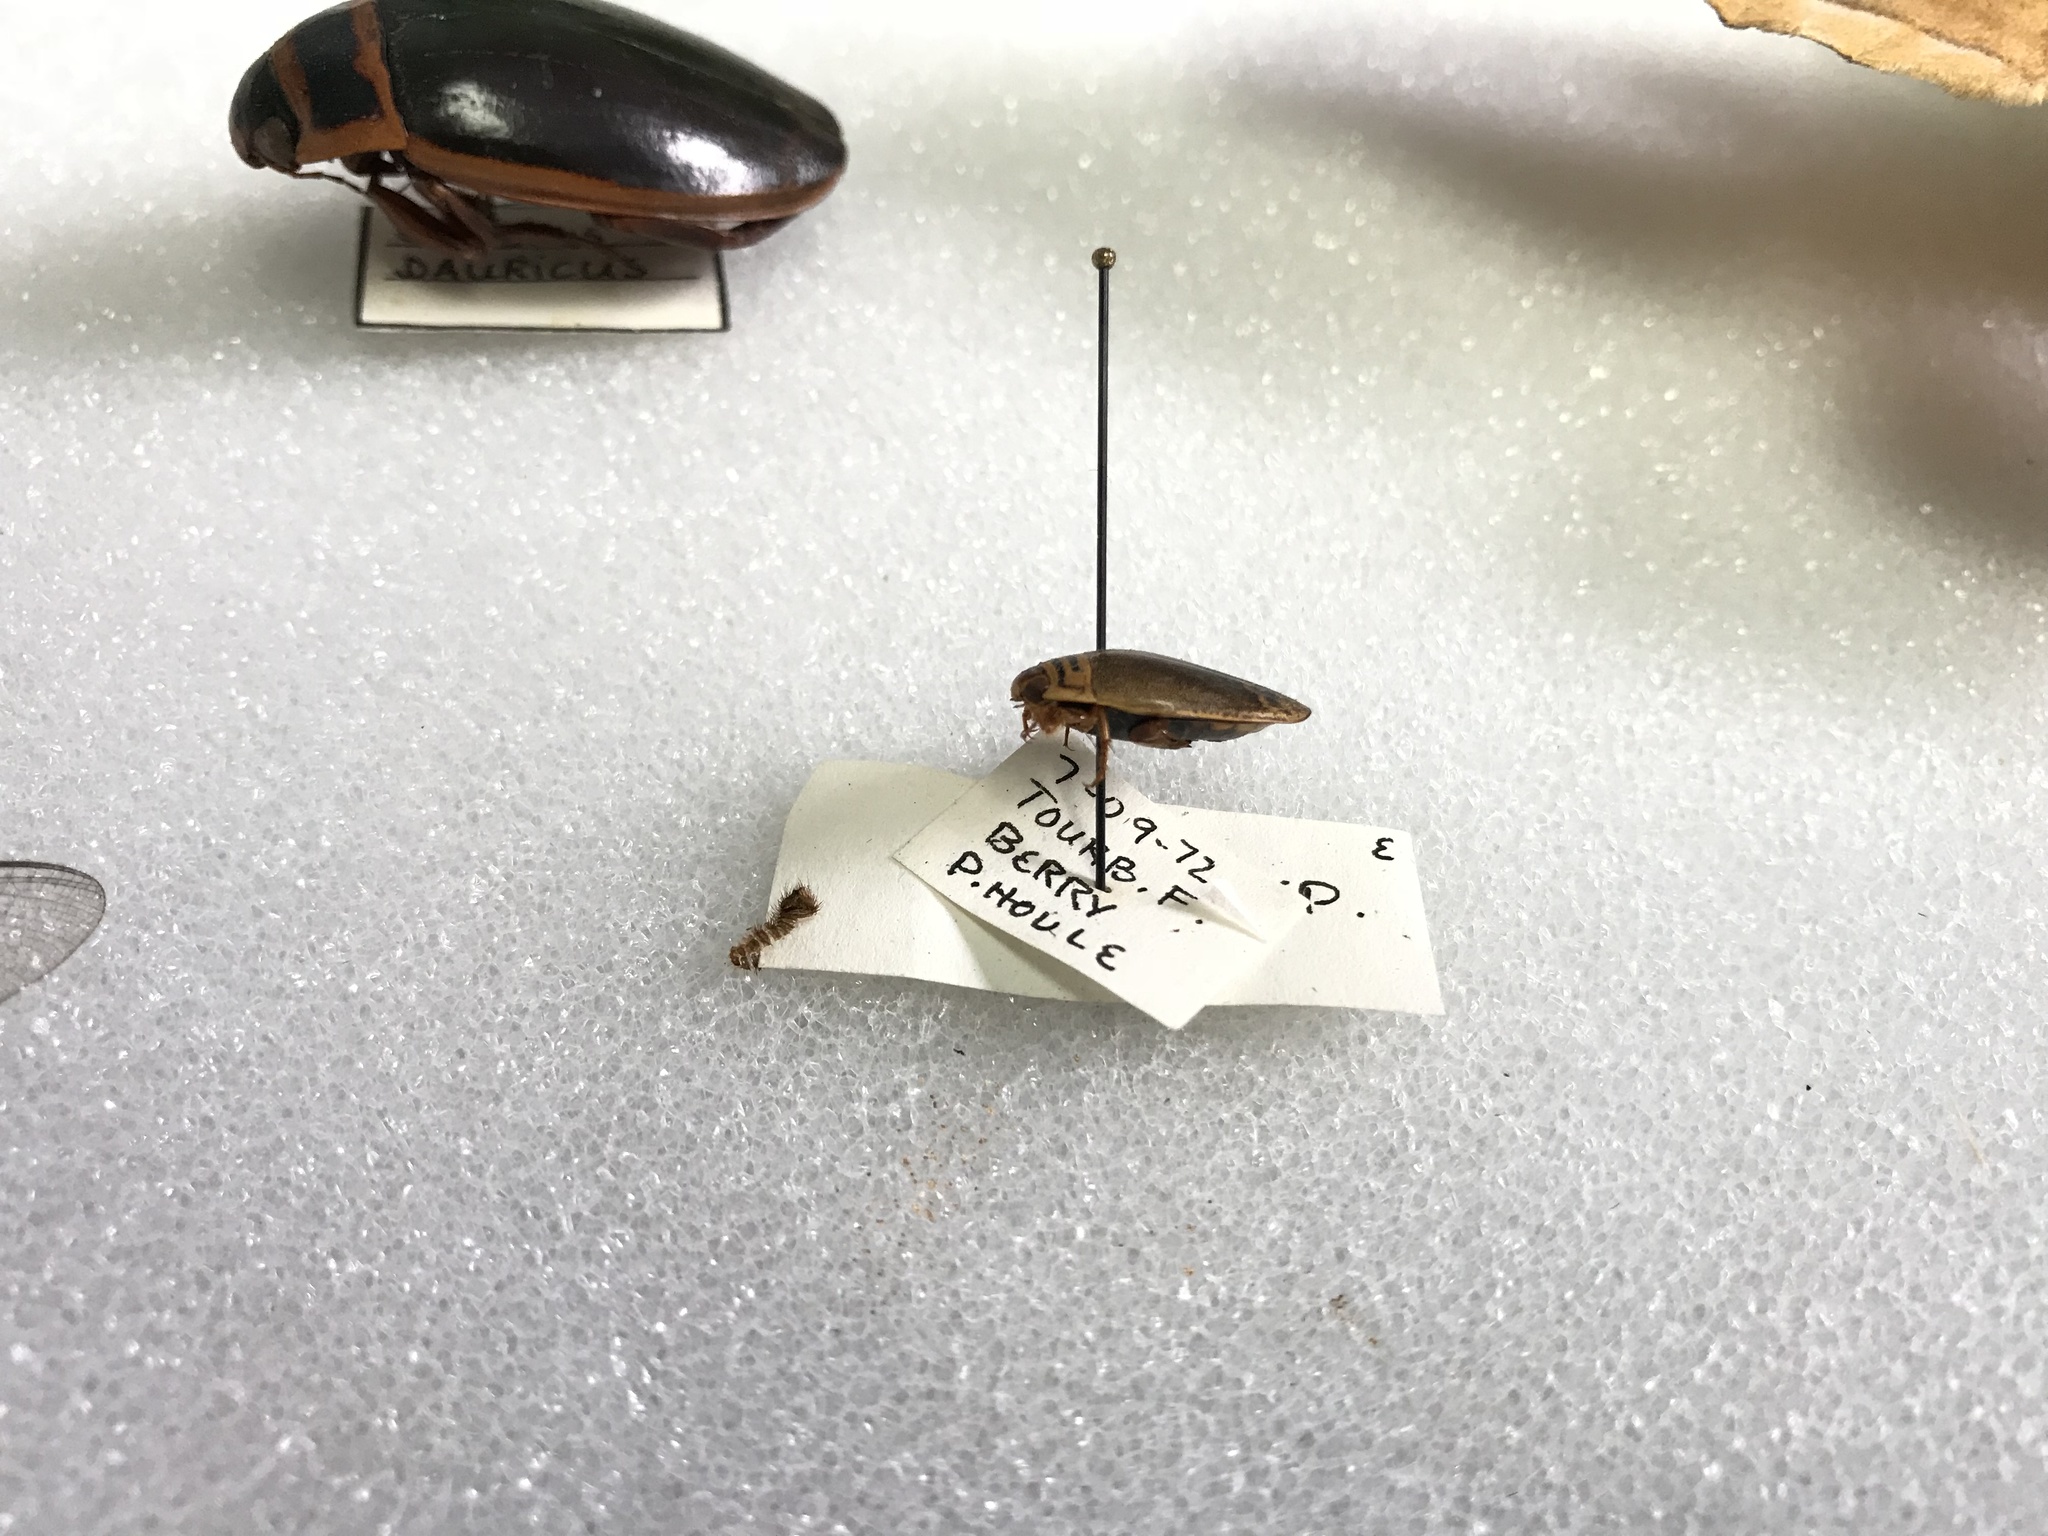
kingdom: Animalia
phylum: Arthropoda
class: Insecta
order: Coleoptera
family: Dytiscidae
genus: Acilius
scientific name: Acilius semisulcatus
